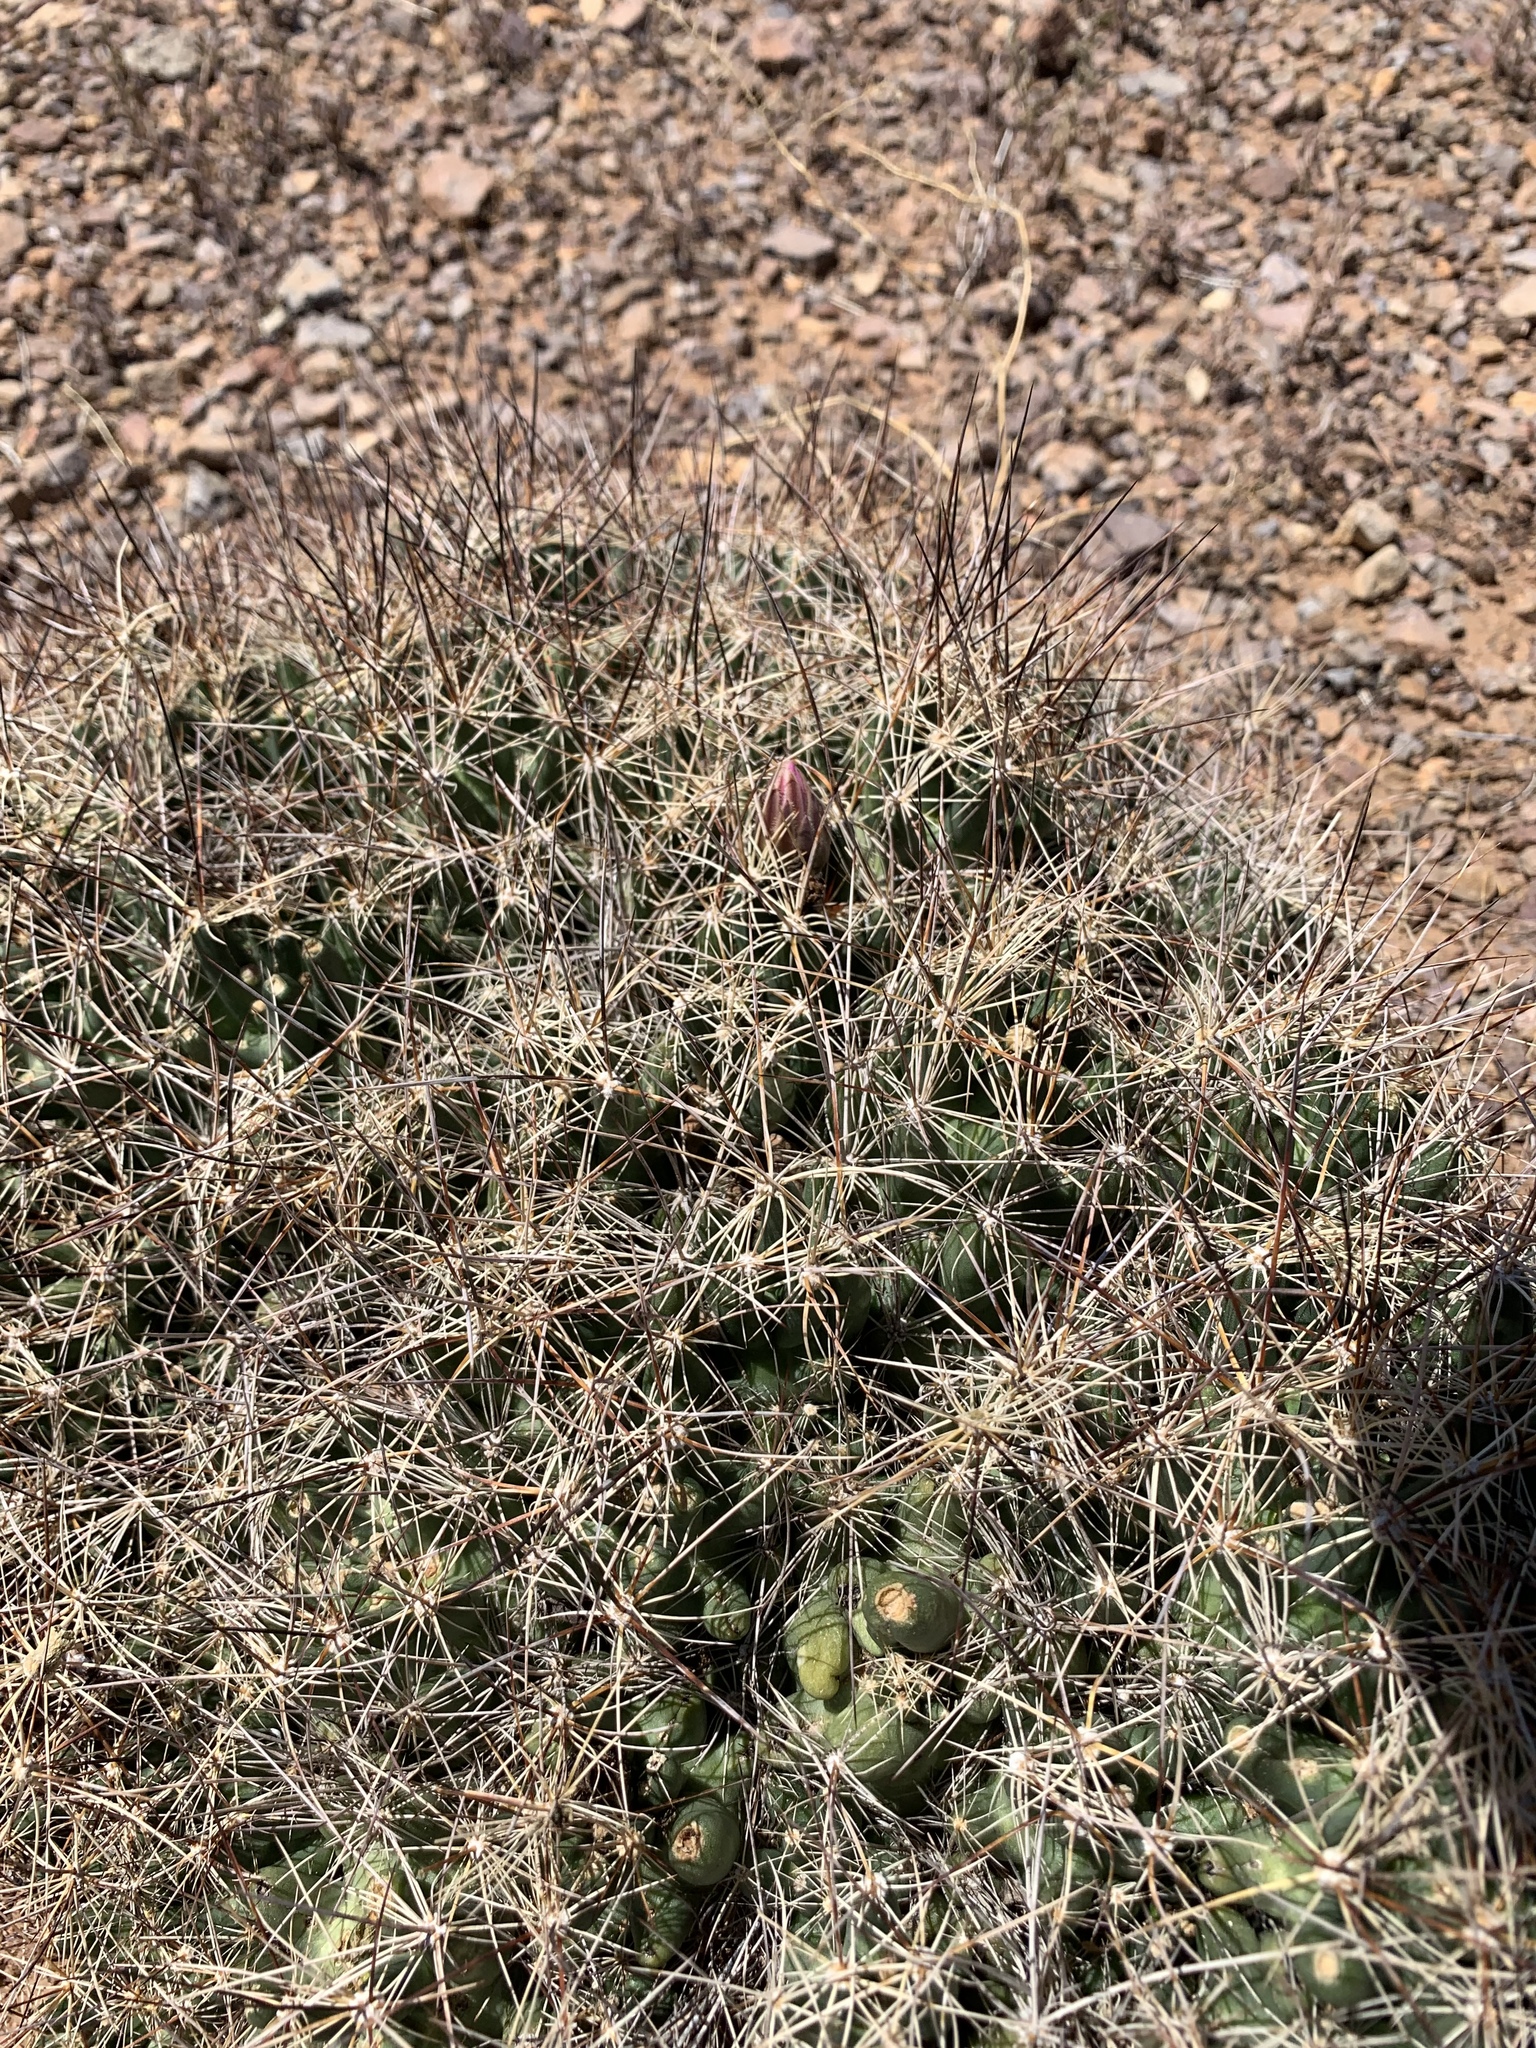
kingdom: Plantae
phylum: Tracheophyta
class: Magnoliopsida
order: Caryophyllales
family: Cactaceae
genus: Coryphantha
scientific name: Coryphantha macromeris
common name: Nipple beehive cactus
